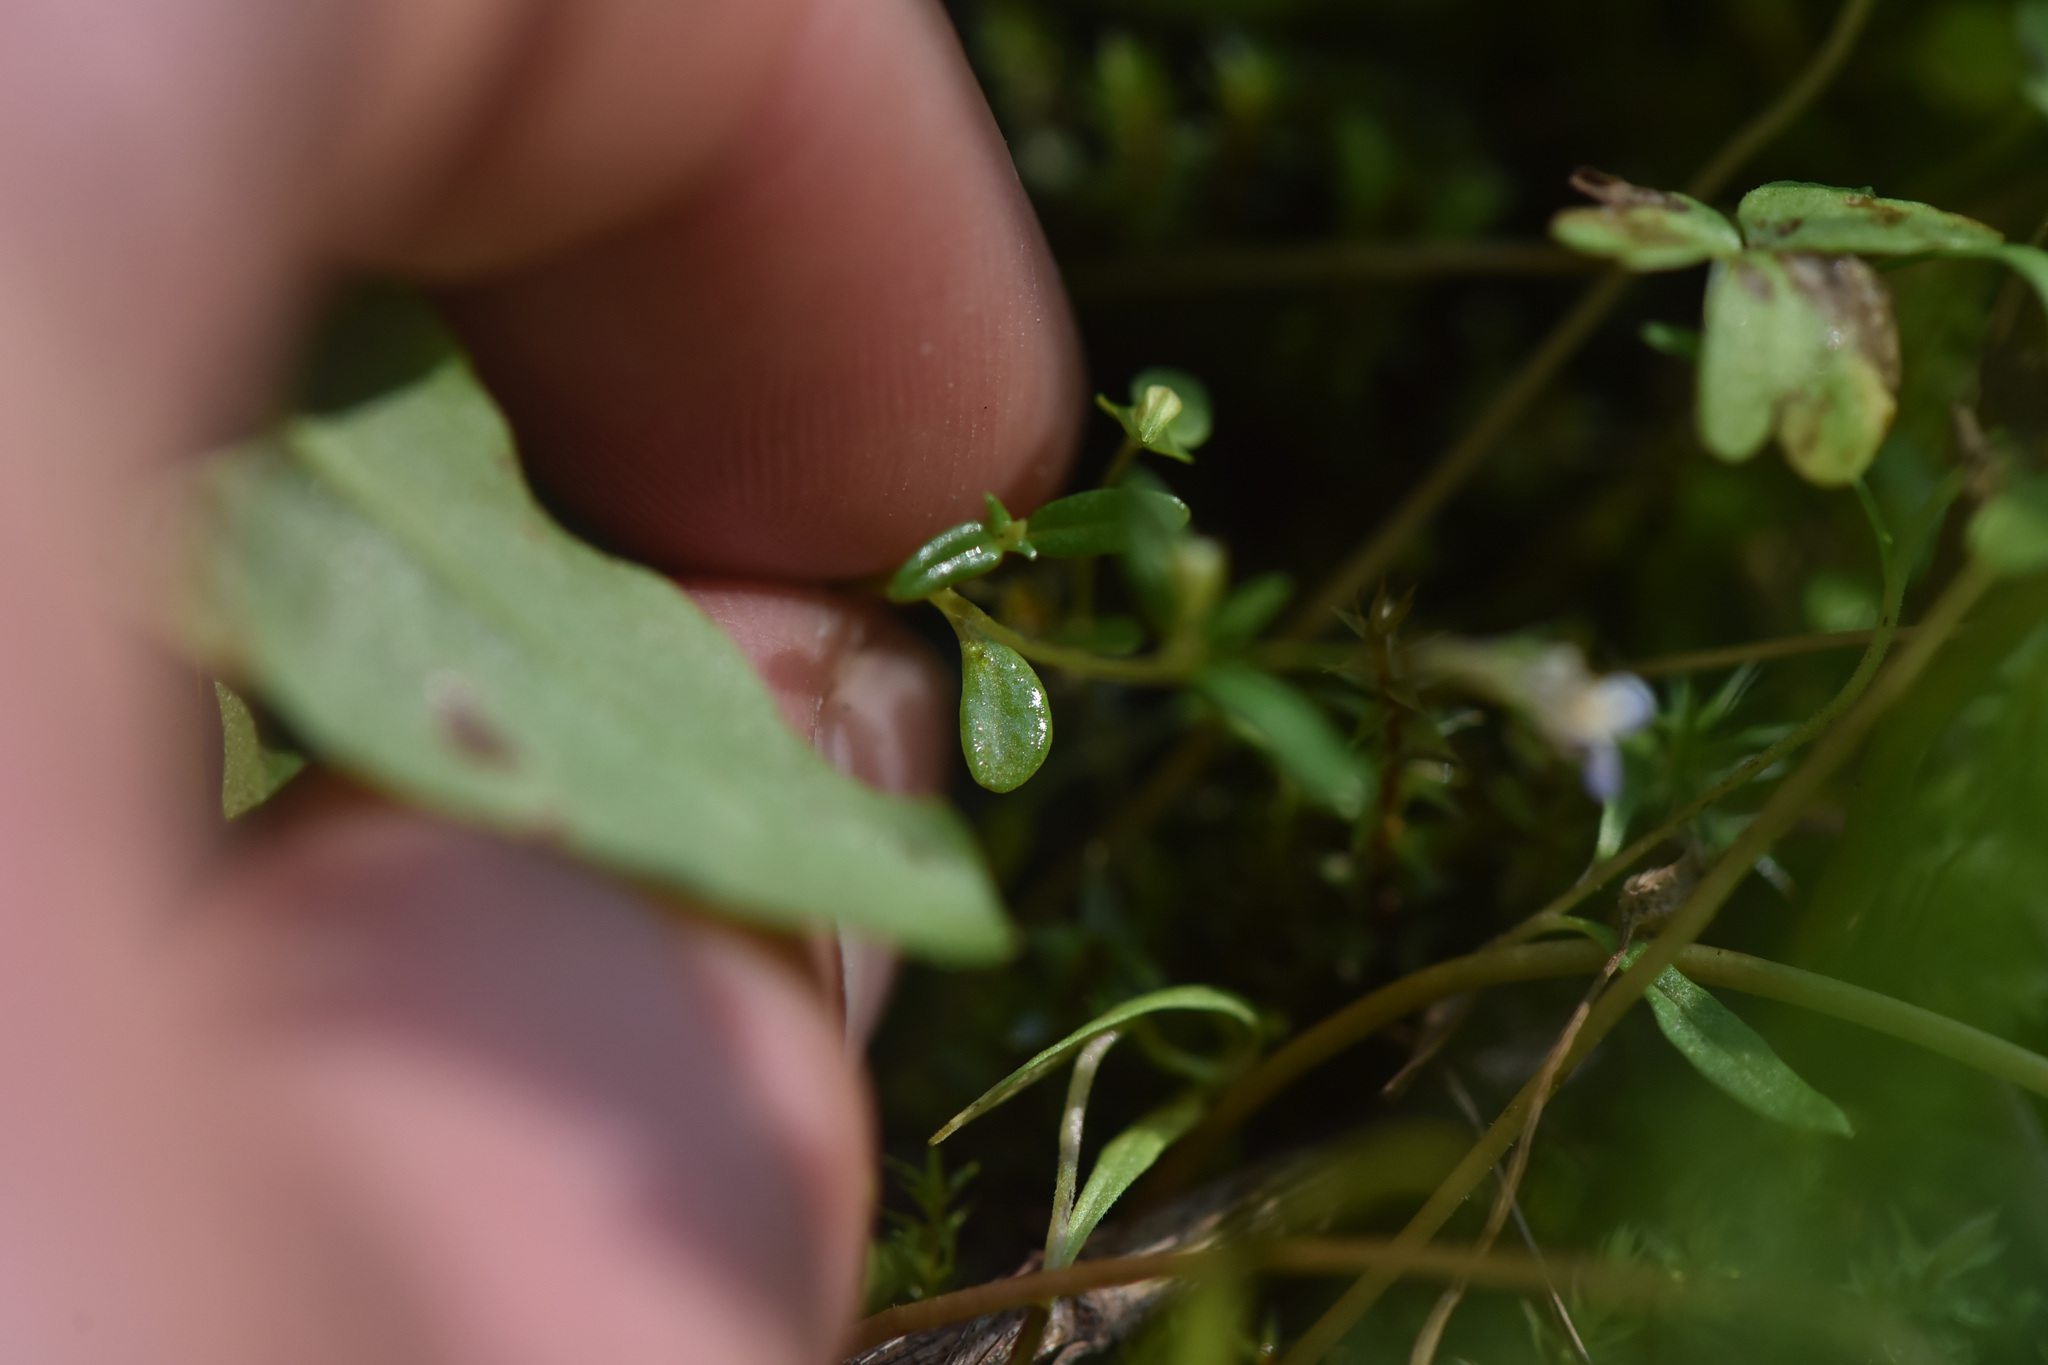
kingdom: Plantae
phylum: Tracheophyta
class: Magnoliopsida
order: Lamiales
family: Plantaginaceae
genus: Collinsia
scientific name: Collinsia parviflora
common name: Blue-lips
